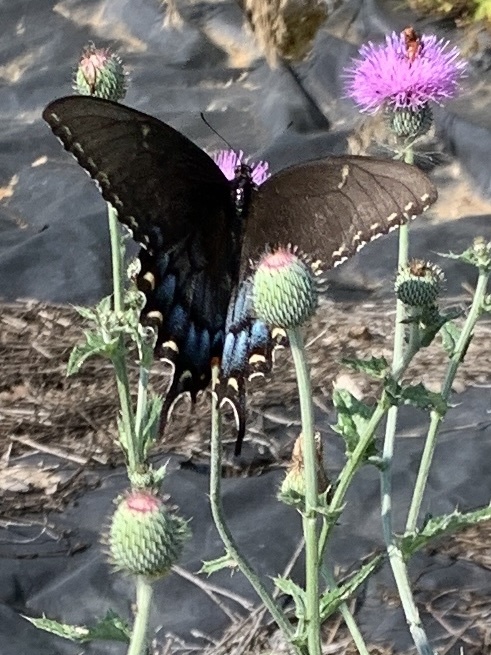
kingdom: Animalia
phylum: Arthropoda
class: Insecta
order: Lepidoptera
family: Papilionidae
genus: Papilio
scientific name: Papilio glaucus
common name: Tiger swallowtail
